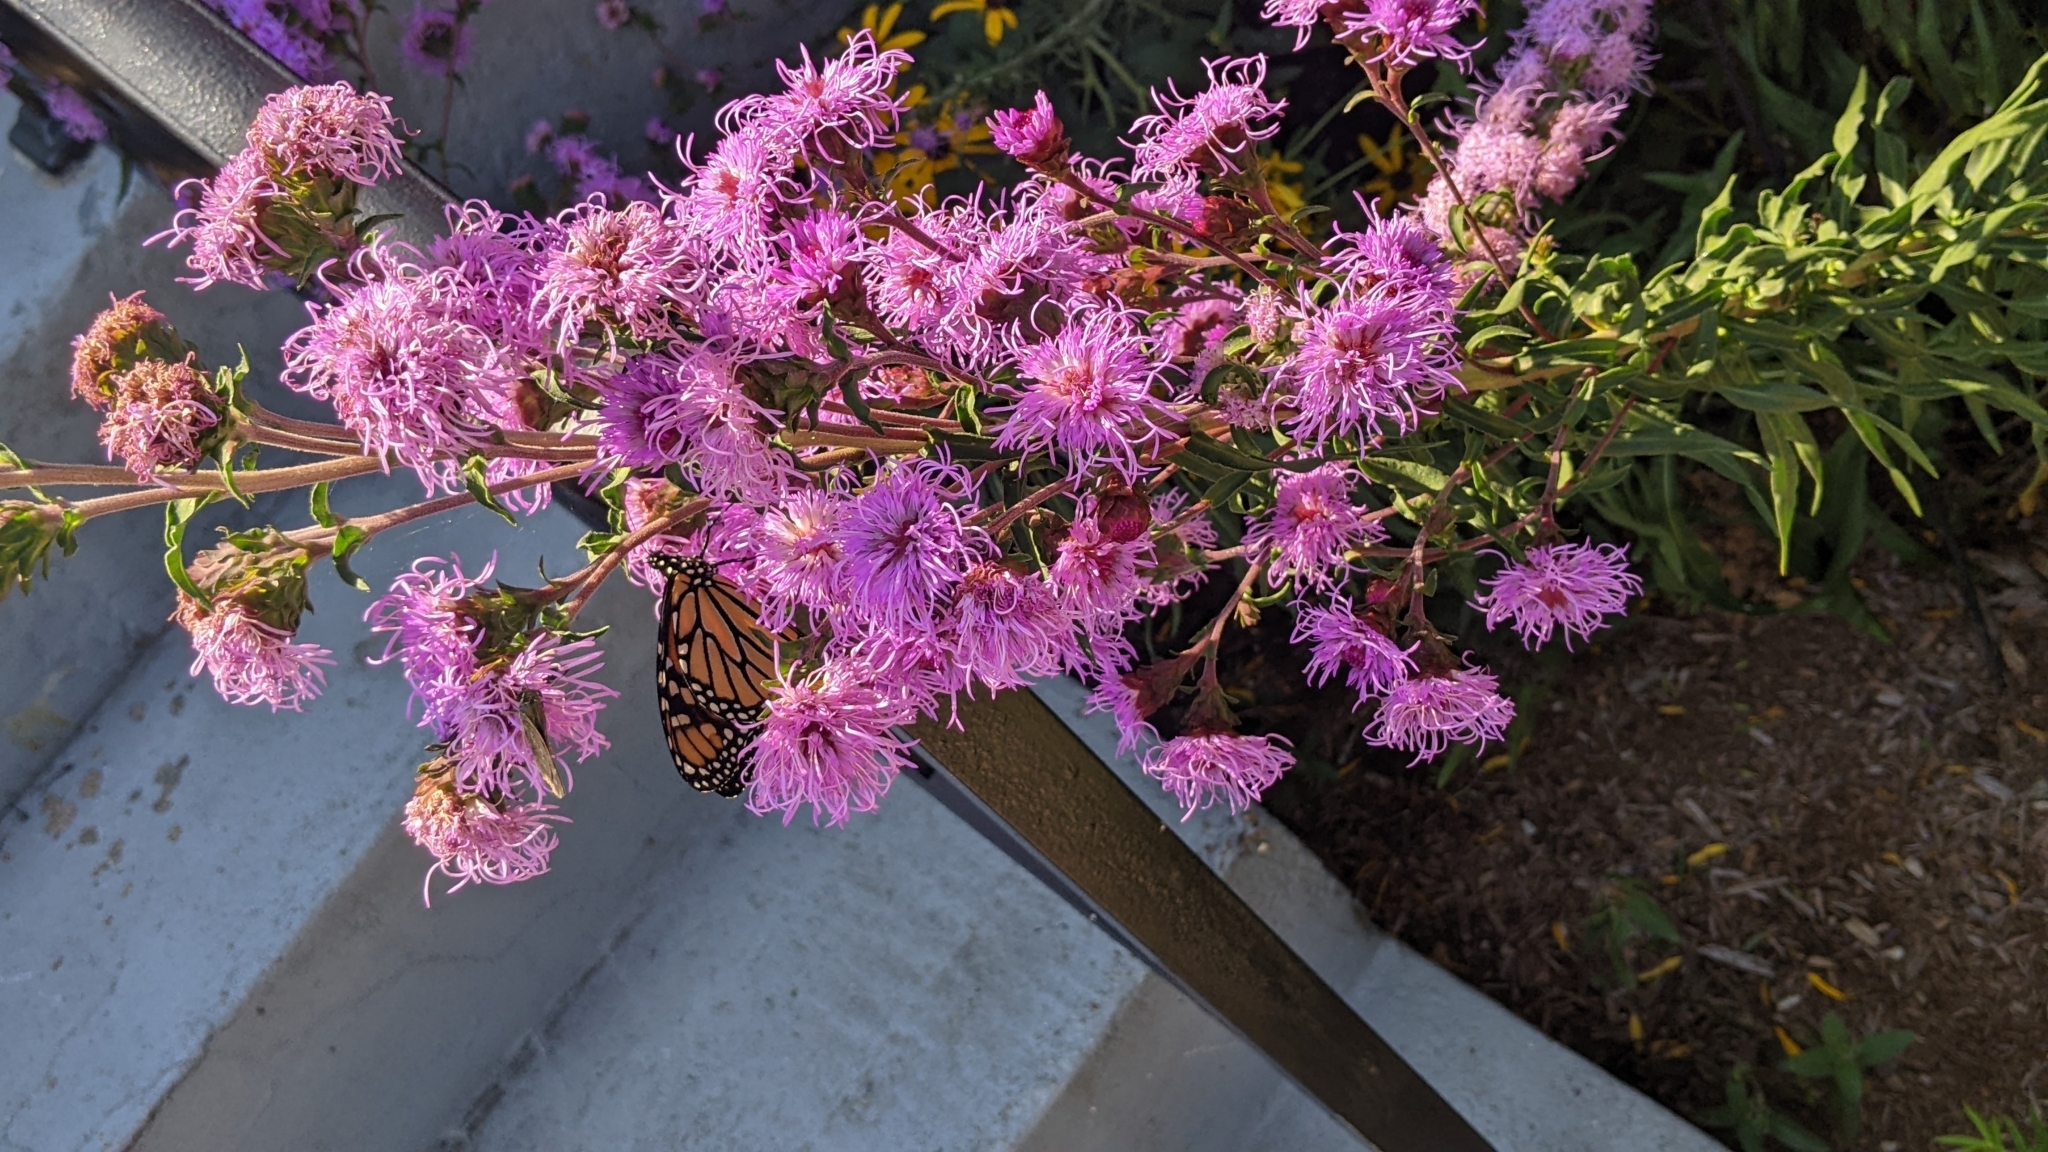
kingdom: Animalia
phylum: Arthropoda
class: Insecta
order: Lepidoptera
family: Nymphalidae
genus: Danaus
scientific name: Danaus plexippus
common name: Monarch
